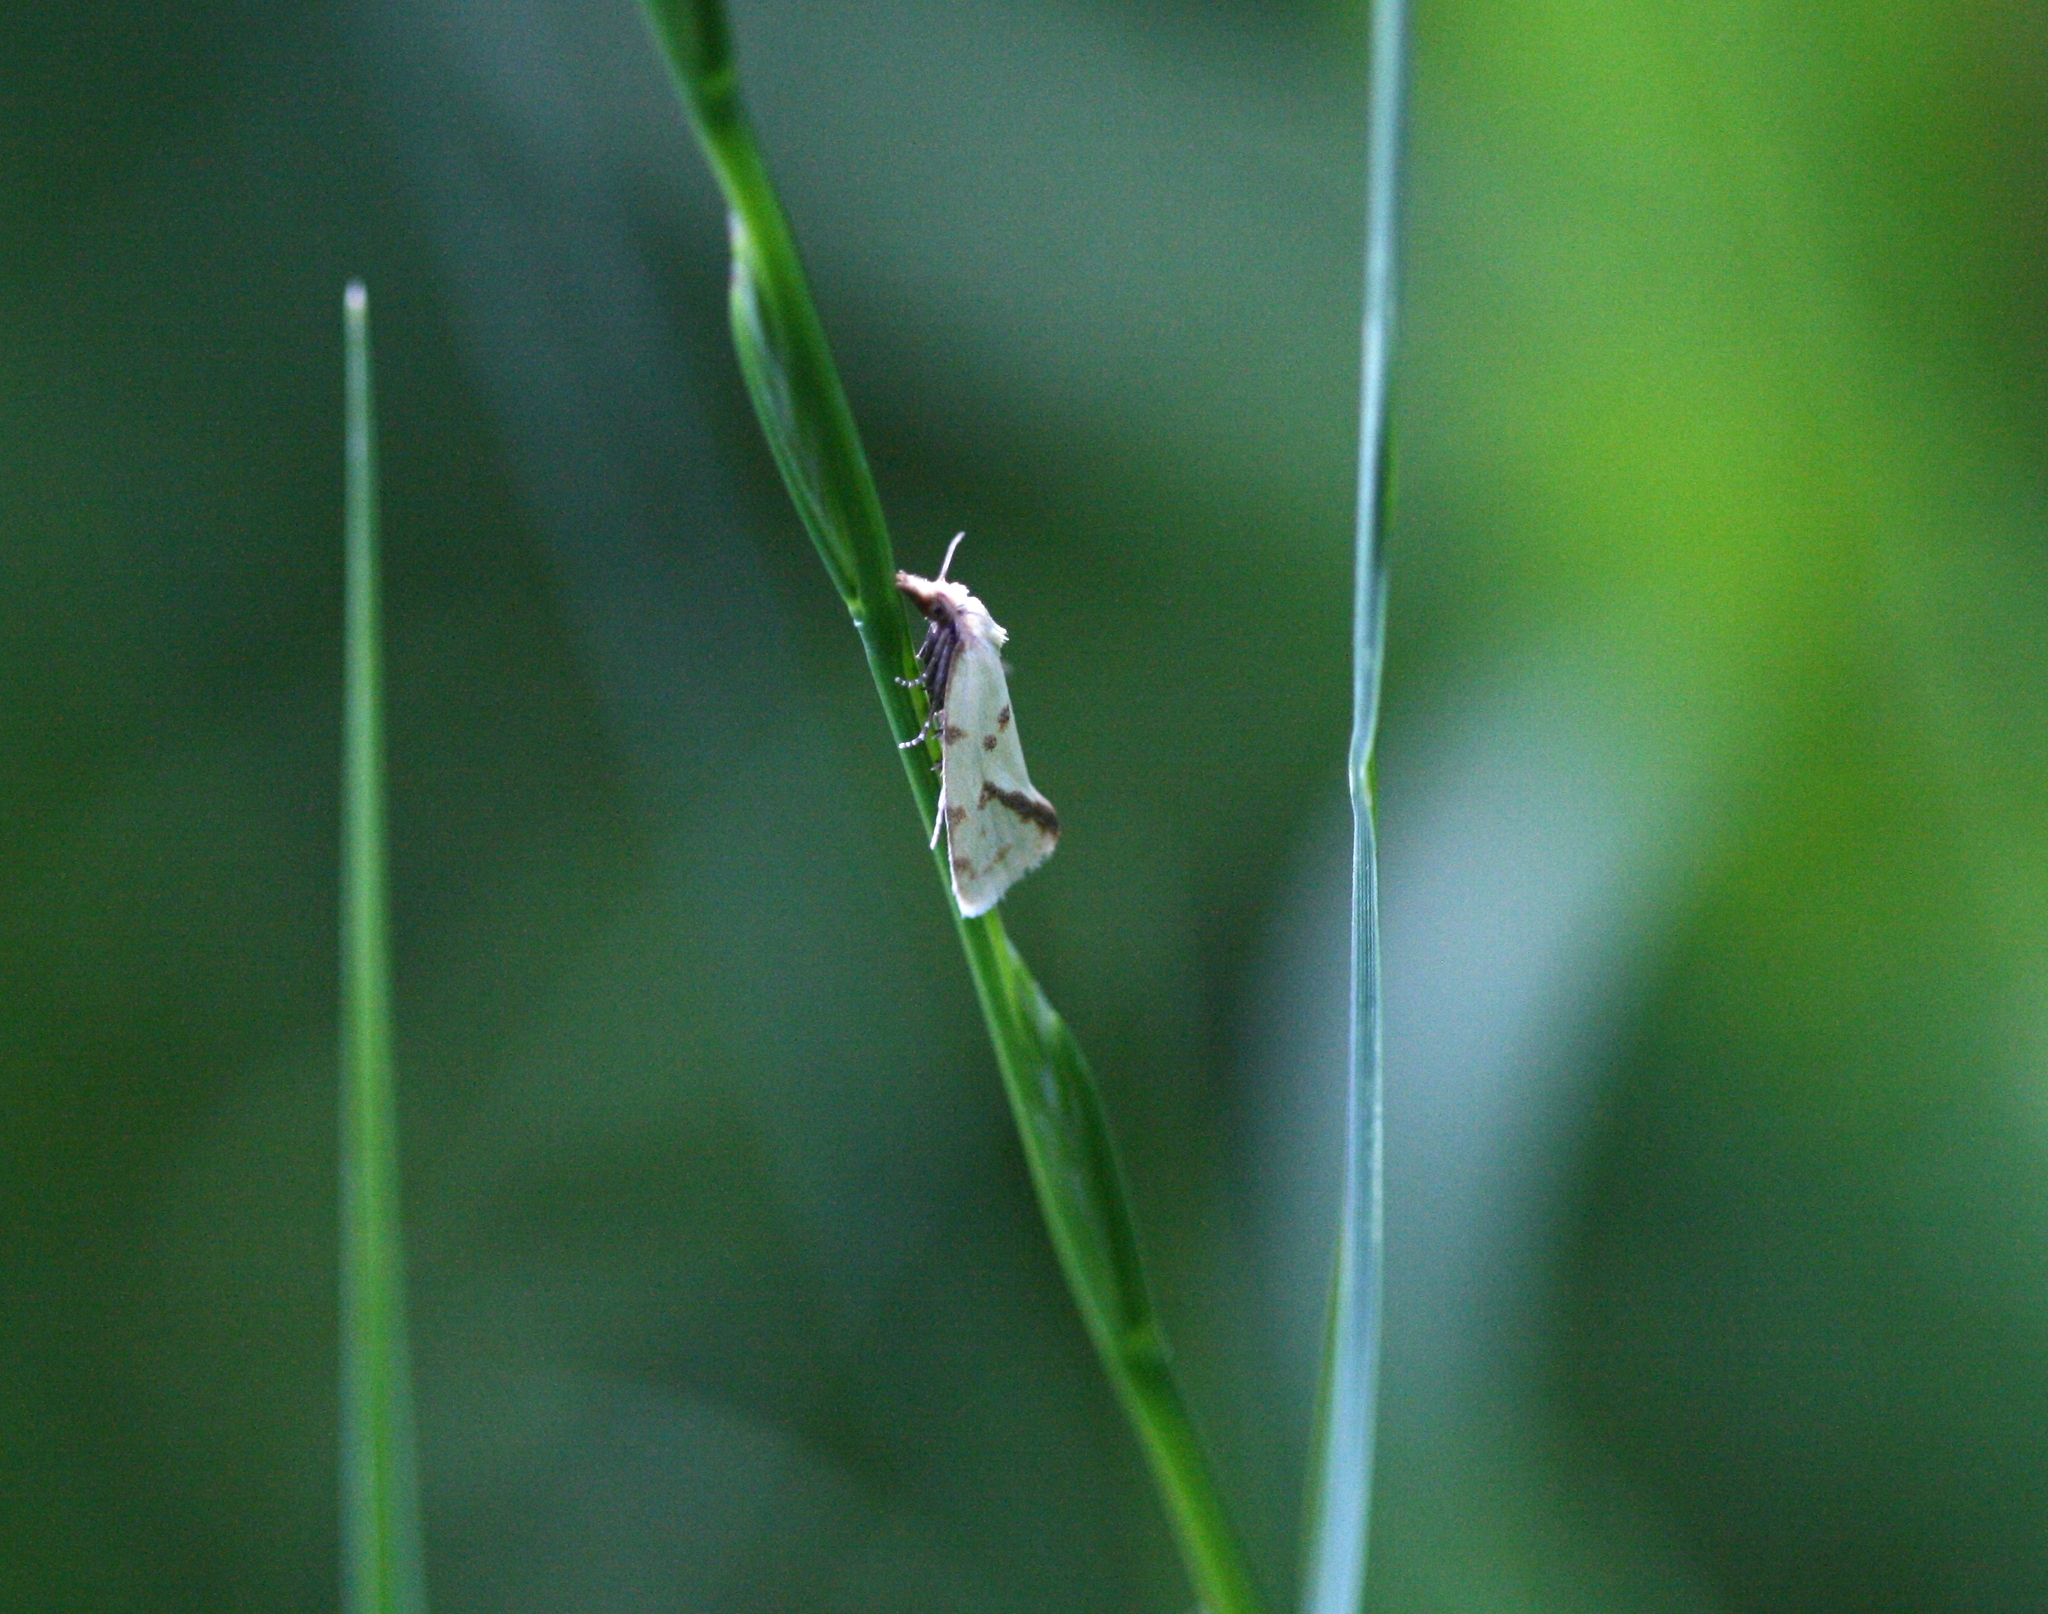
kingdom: Animalia
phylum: Arthropoda
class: Insecta
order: Lepidoptera
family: Tortricidae
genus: Agapeta
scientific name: Agapeta hamana
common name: Common yellow conch
